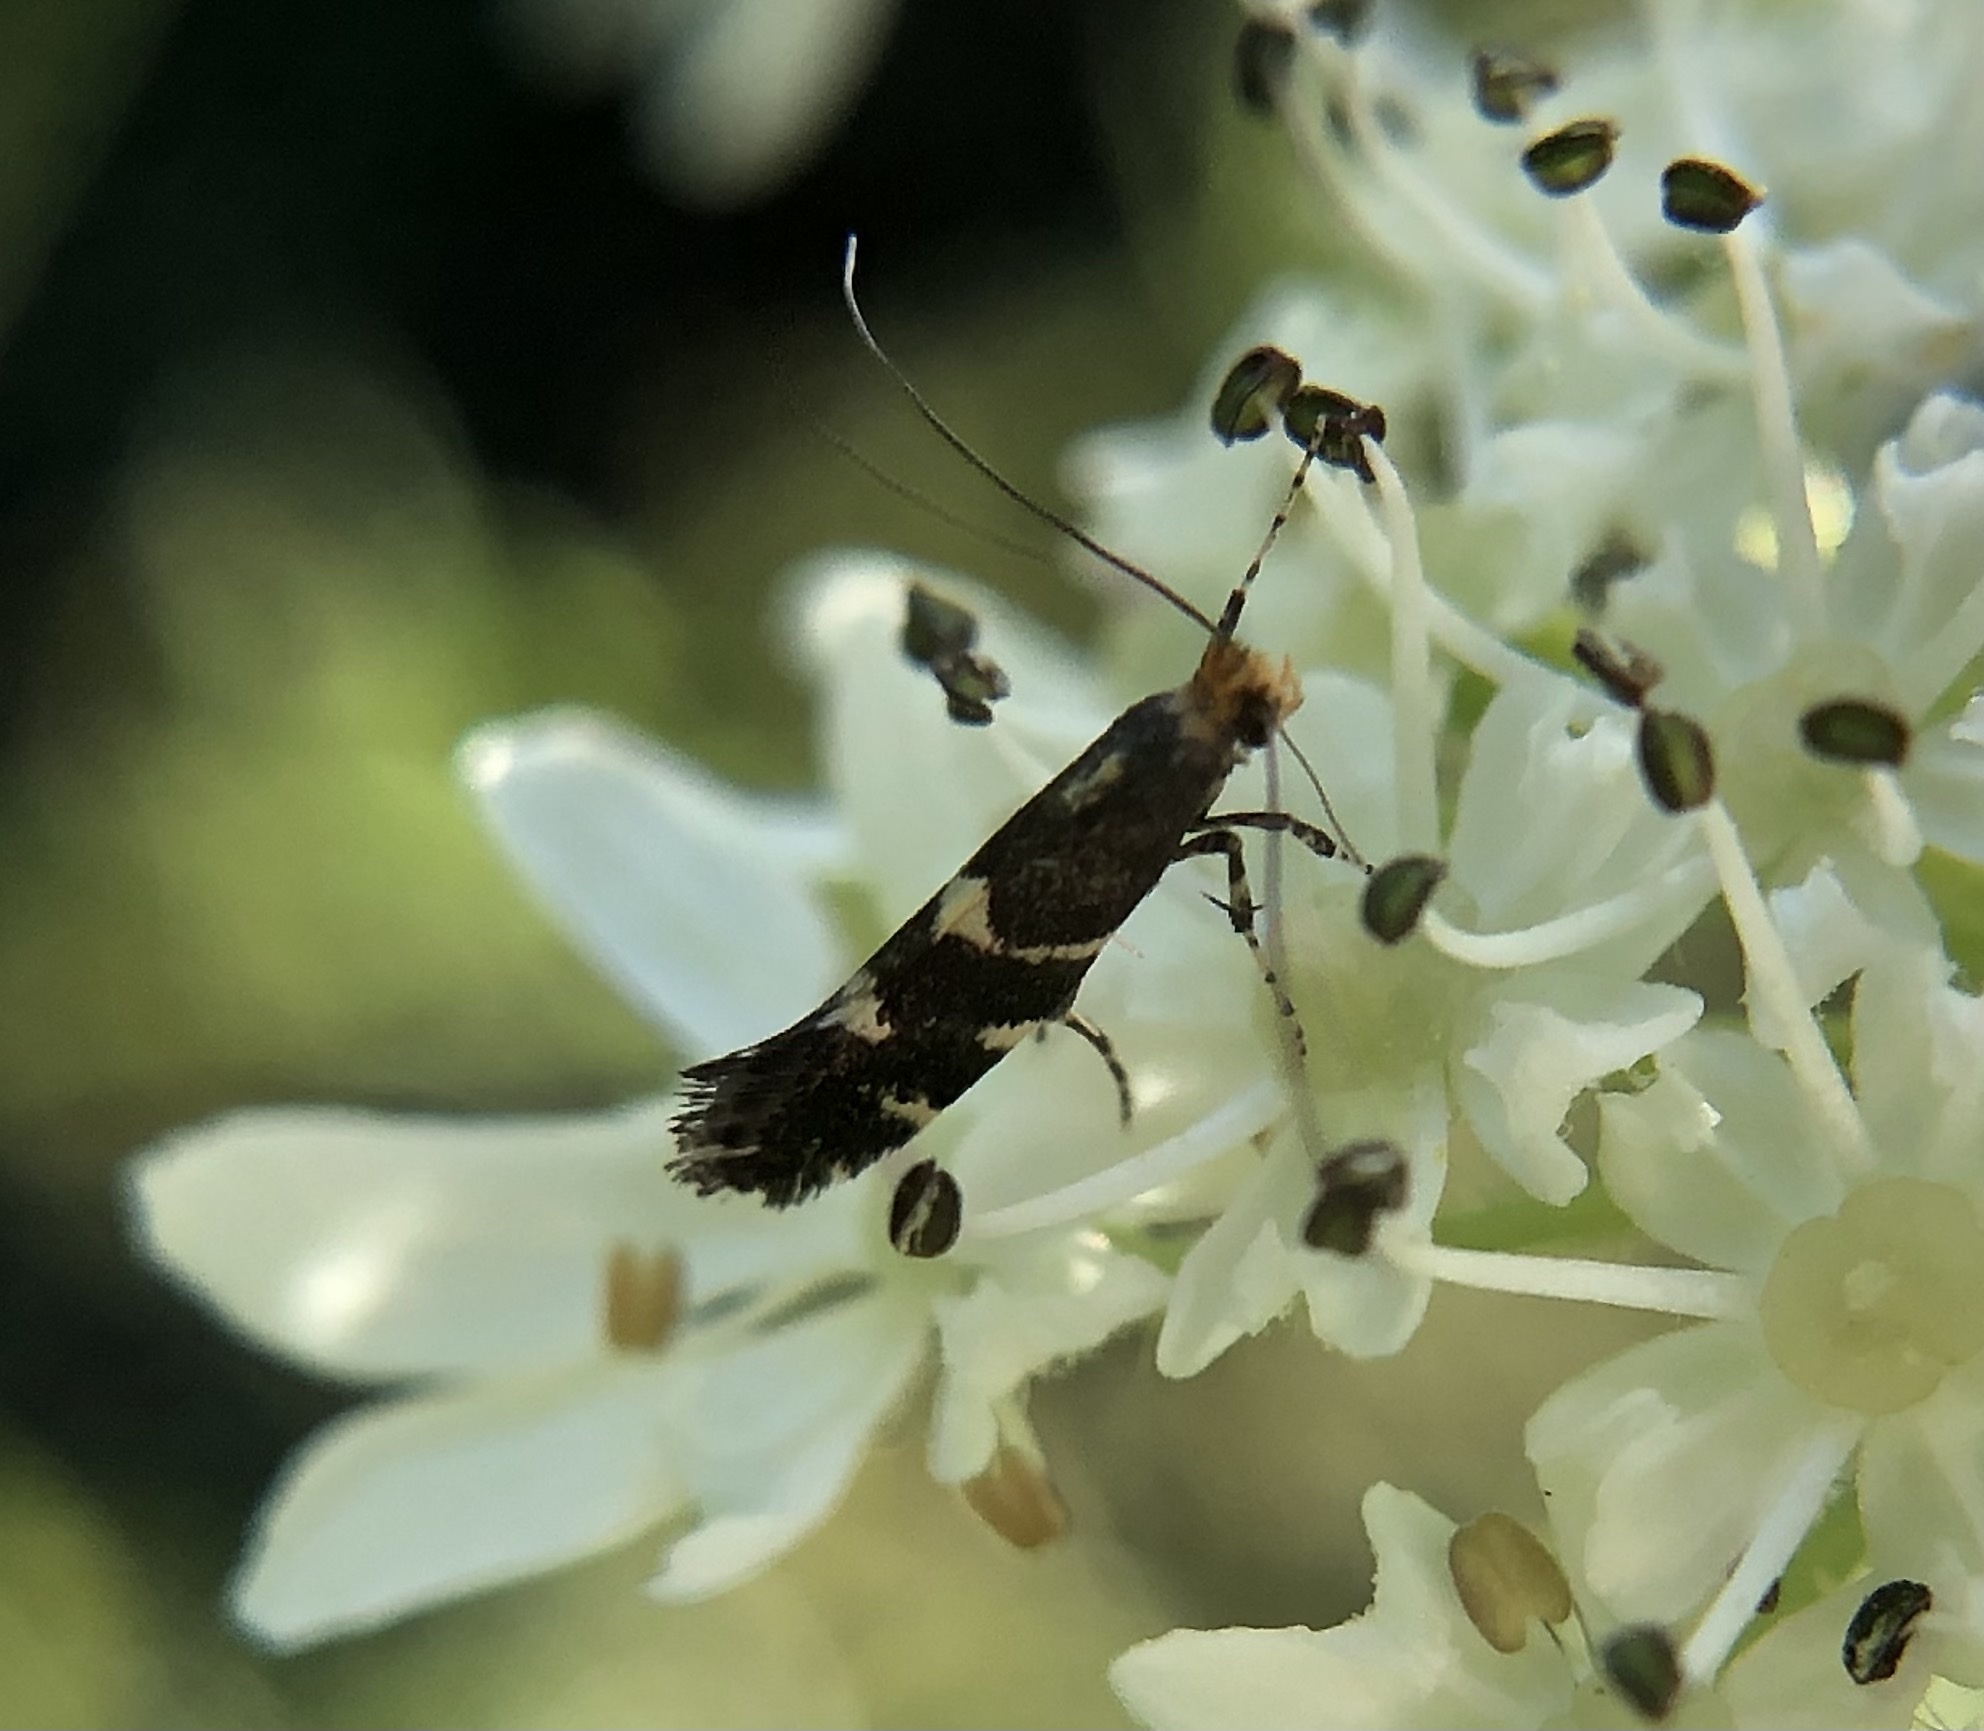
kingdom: Animalia
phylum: Arthropoda
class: Insecta
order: Lepidoptera
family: Gracillariidae
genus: Calybites
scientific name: Calybites phasianipennella
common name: Little slender
